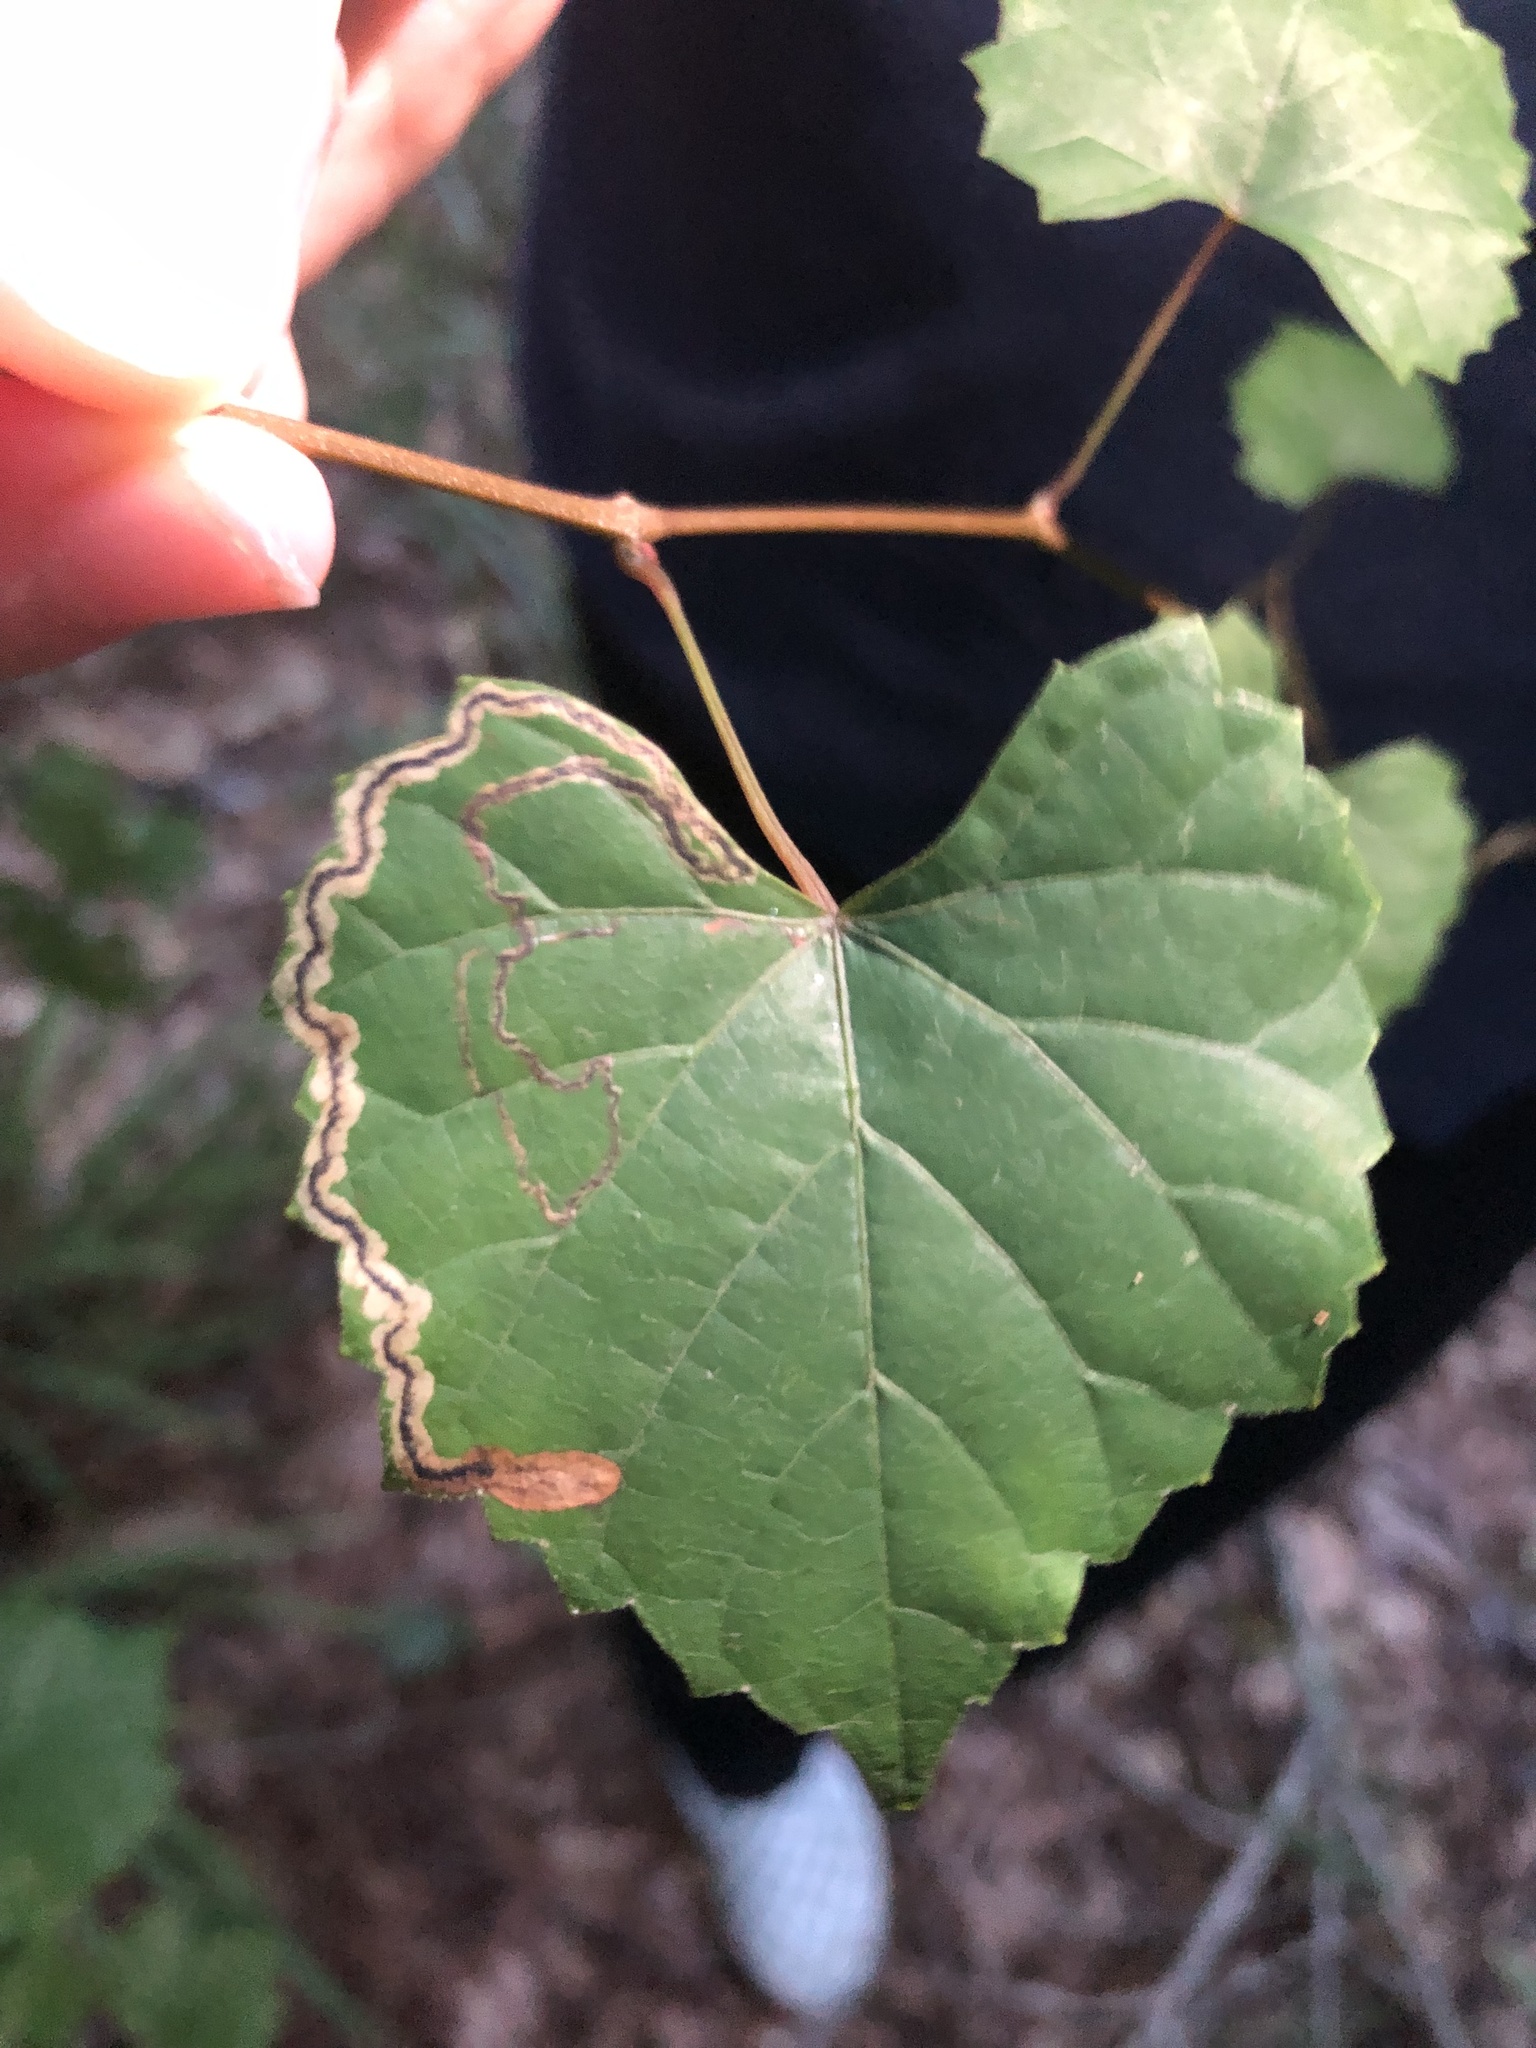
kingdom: Animalia
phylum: Arthropoda
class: Insecta
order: Lepidoptera
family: Gracillariidae
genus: Phyllocnistis
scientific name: Phyllocnistis vitifoliella
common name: Grape leaf-miner moth
